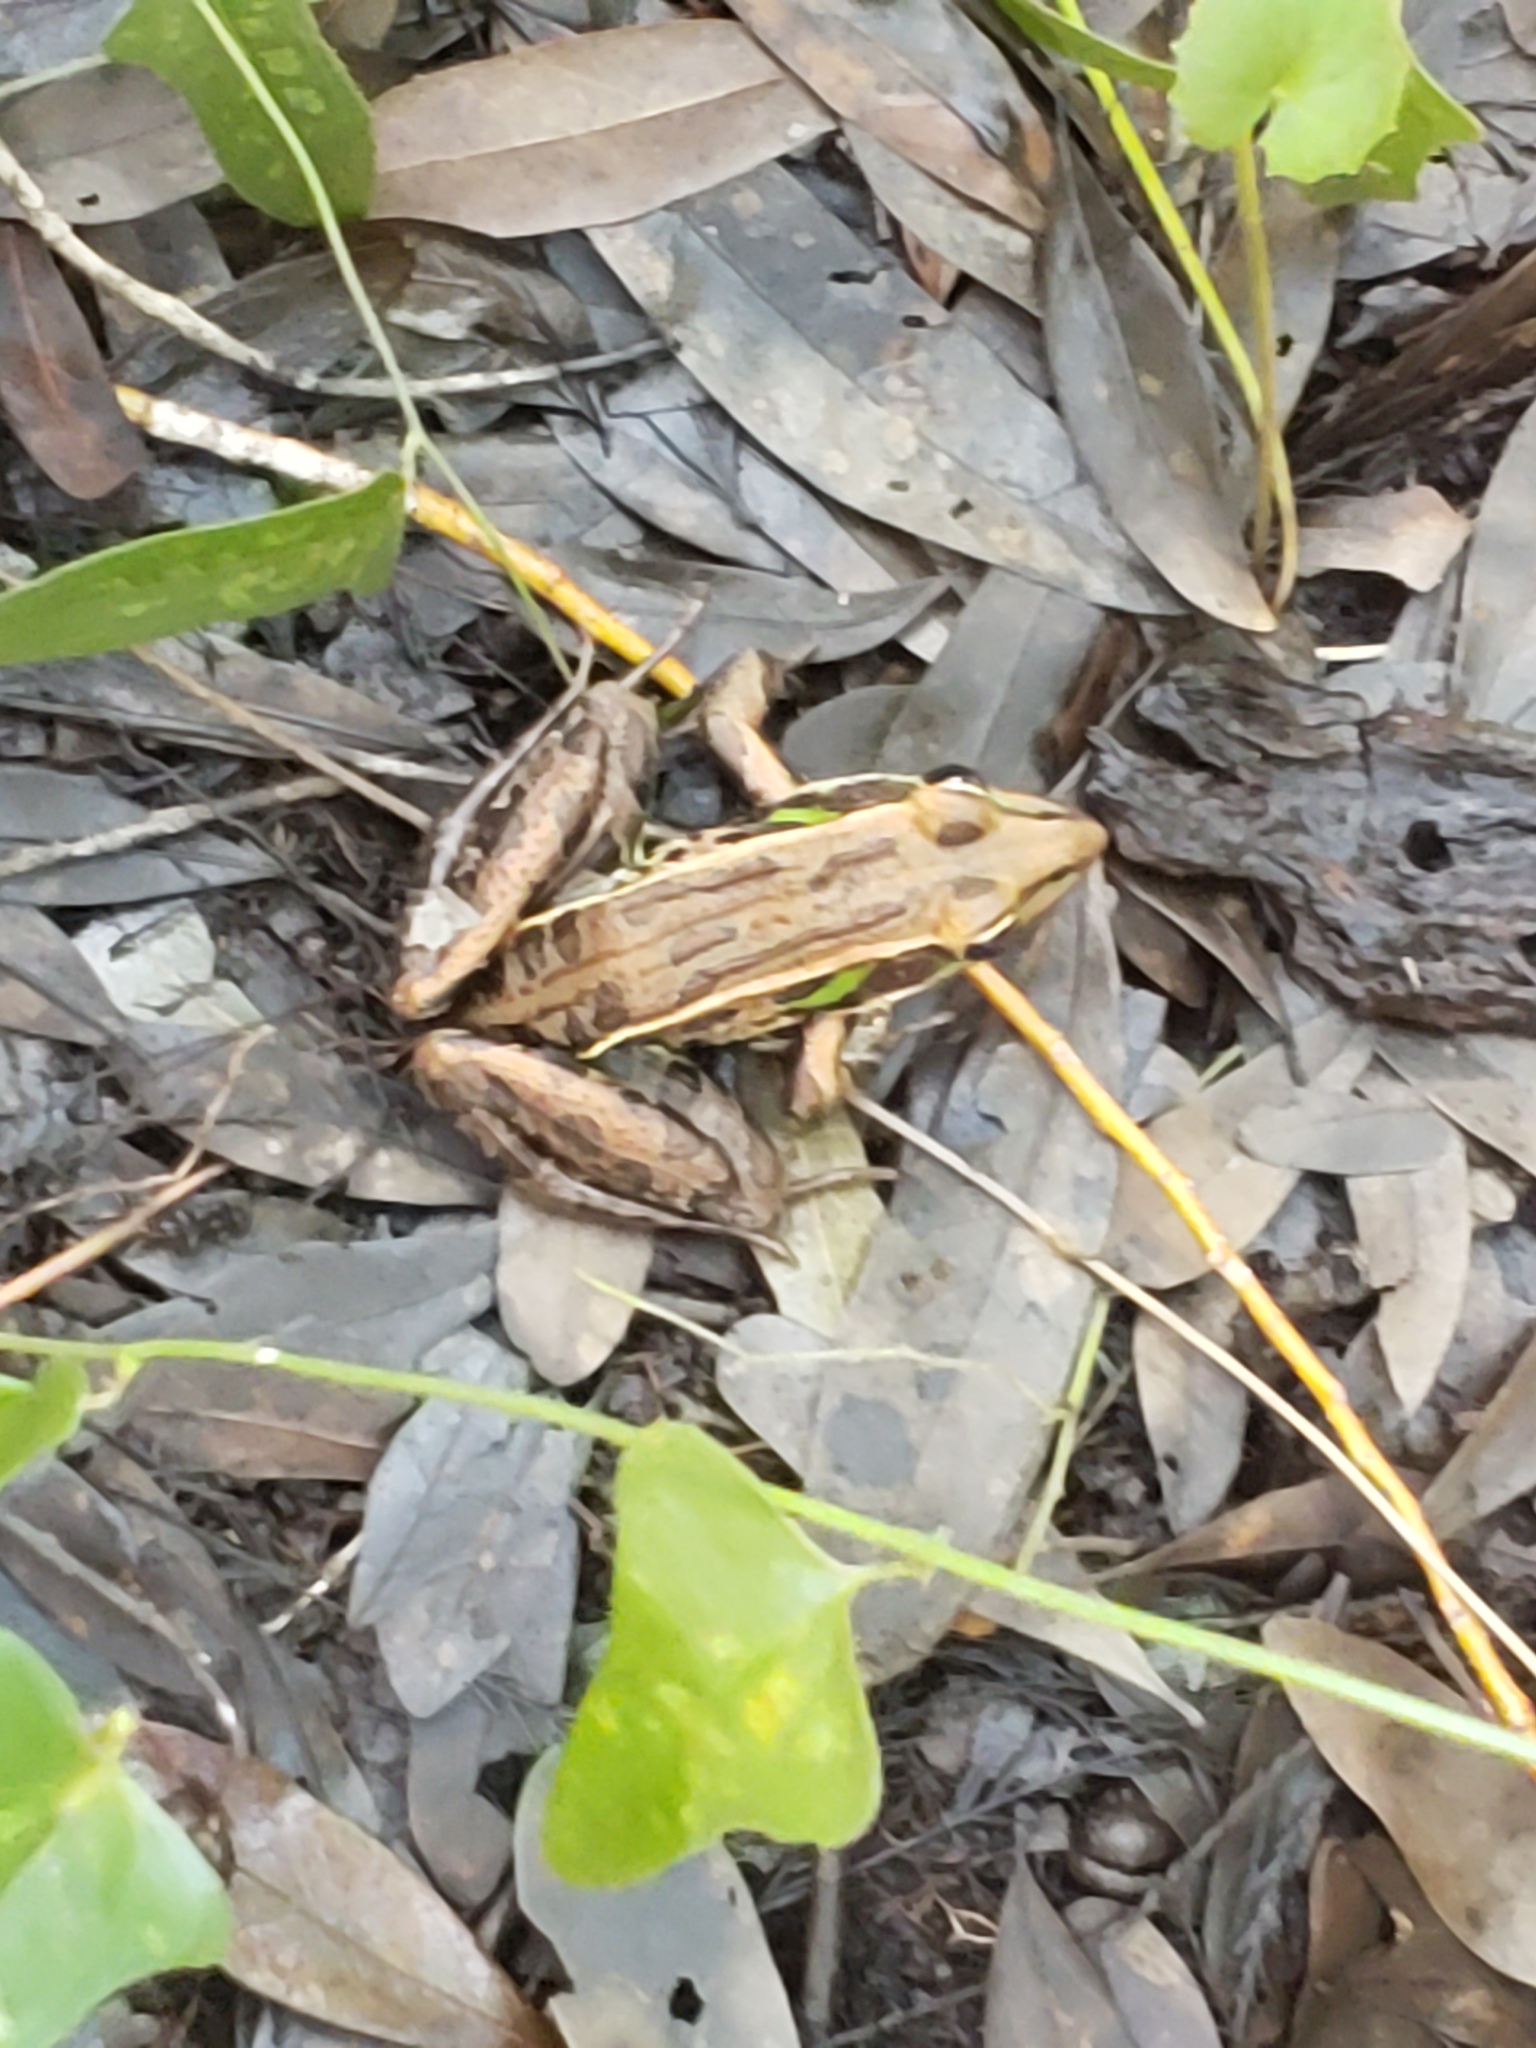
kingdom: Animalia
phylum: Chordata
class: Amphibia
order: Anura
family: Ranidae
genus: Lithobates
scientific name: Lithobates sphenocephalus
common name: Southern leopard frog
